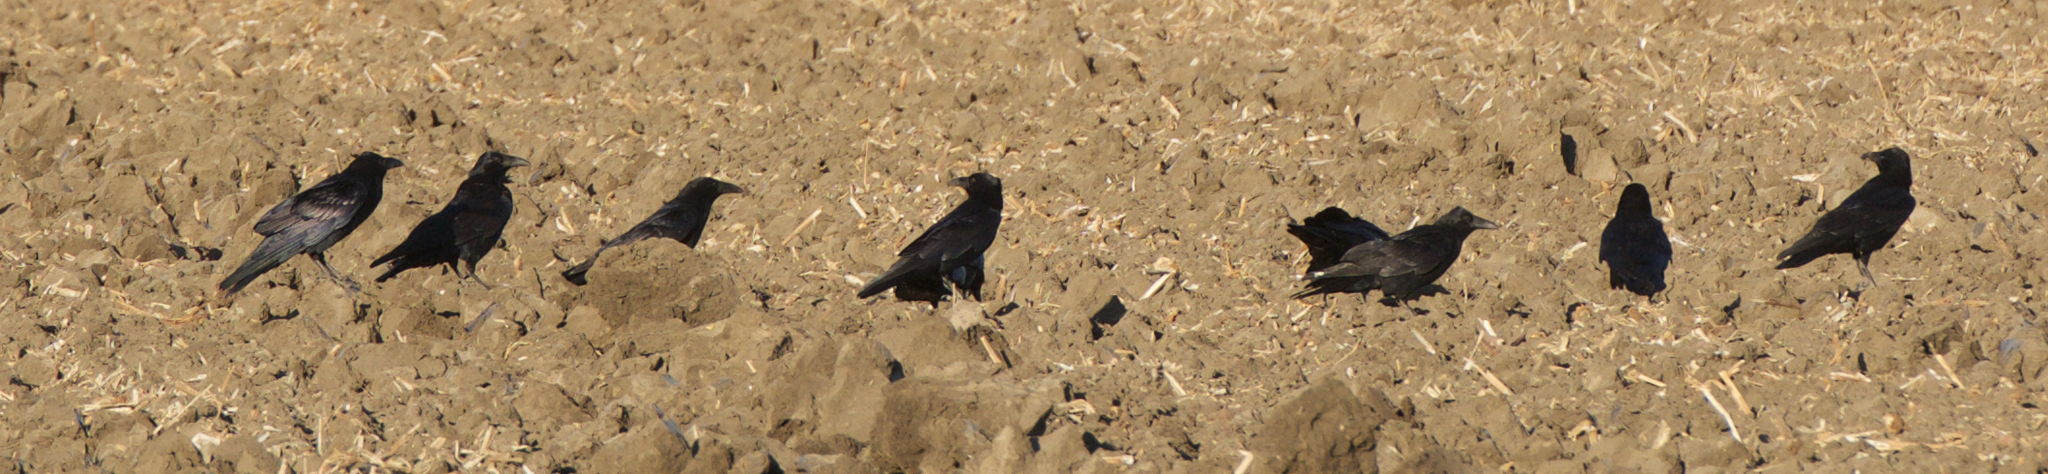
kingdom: Animalia
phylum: Chordata
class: Aves
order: Passeriformes
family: Corvidae
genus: Corvus
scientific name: Corvus corax
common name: Common raven
